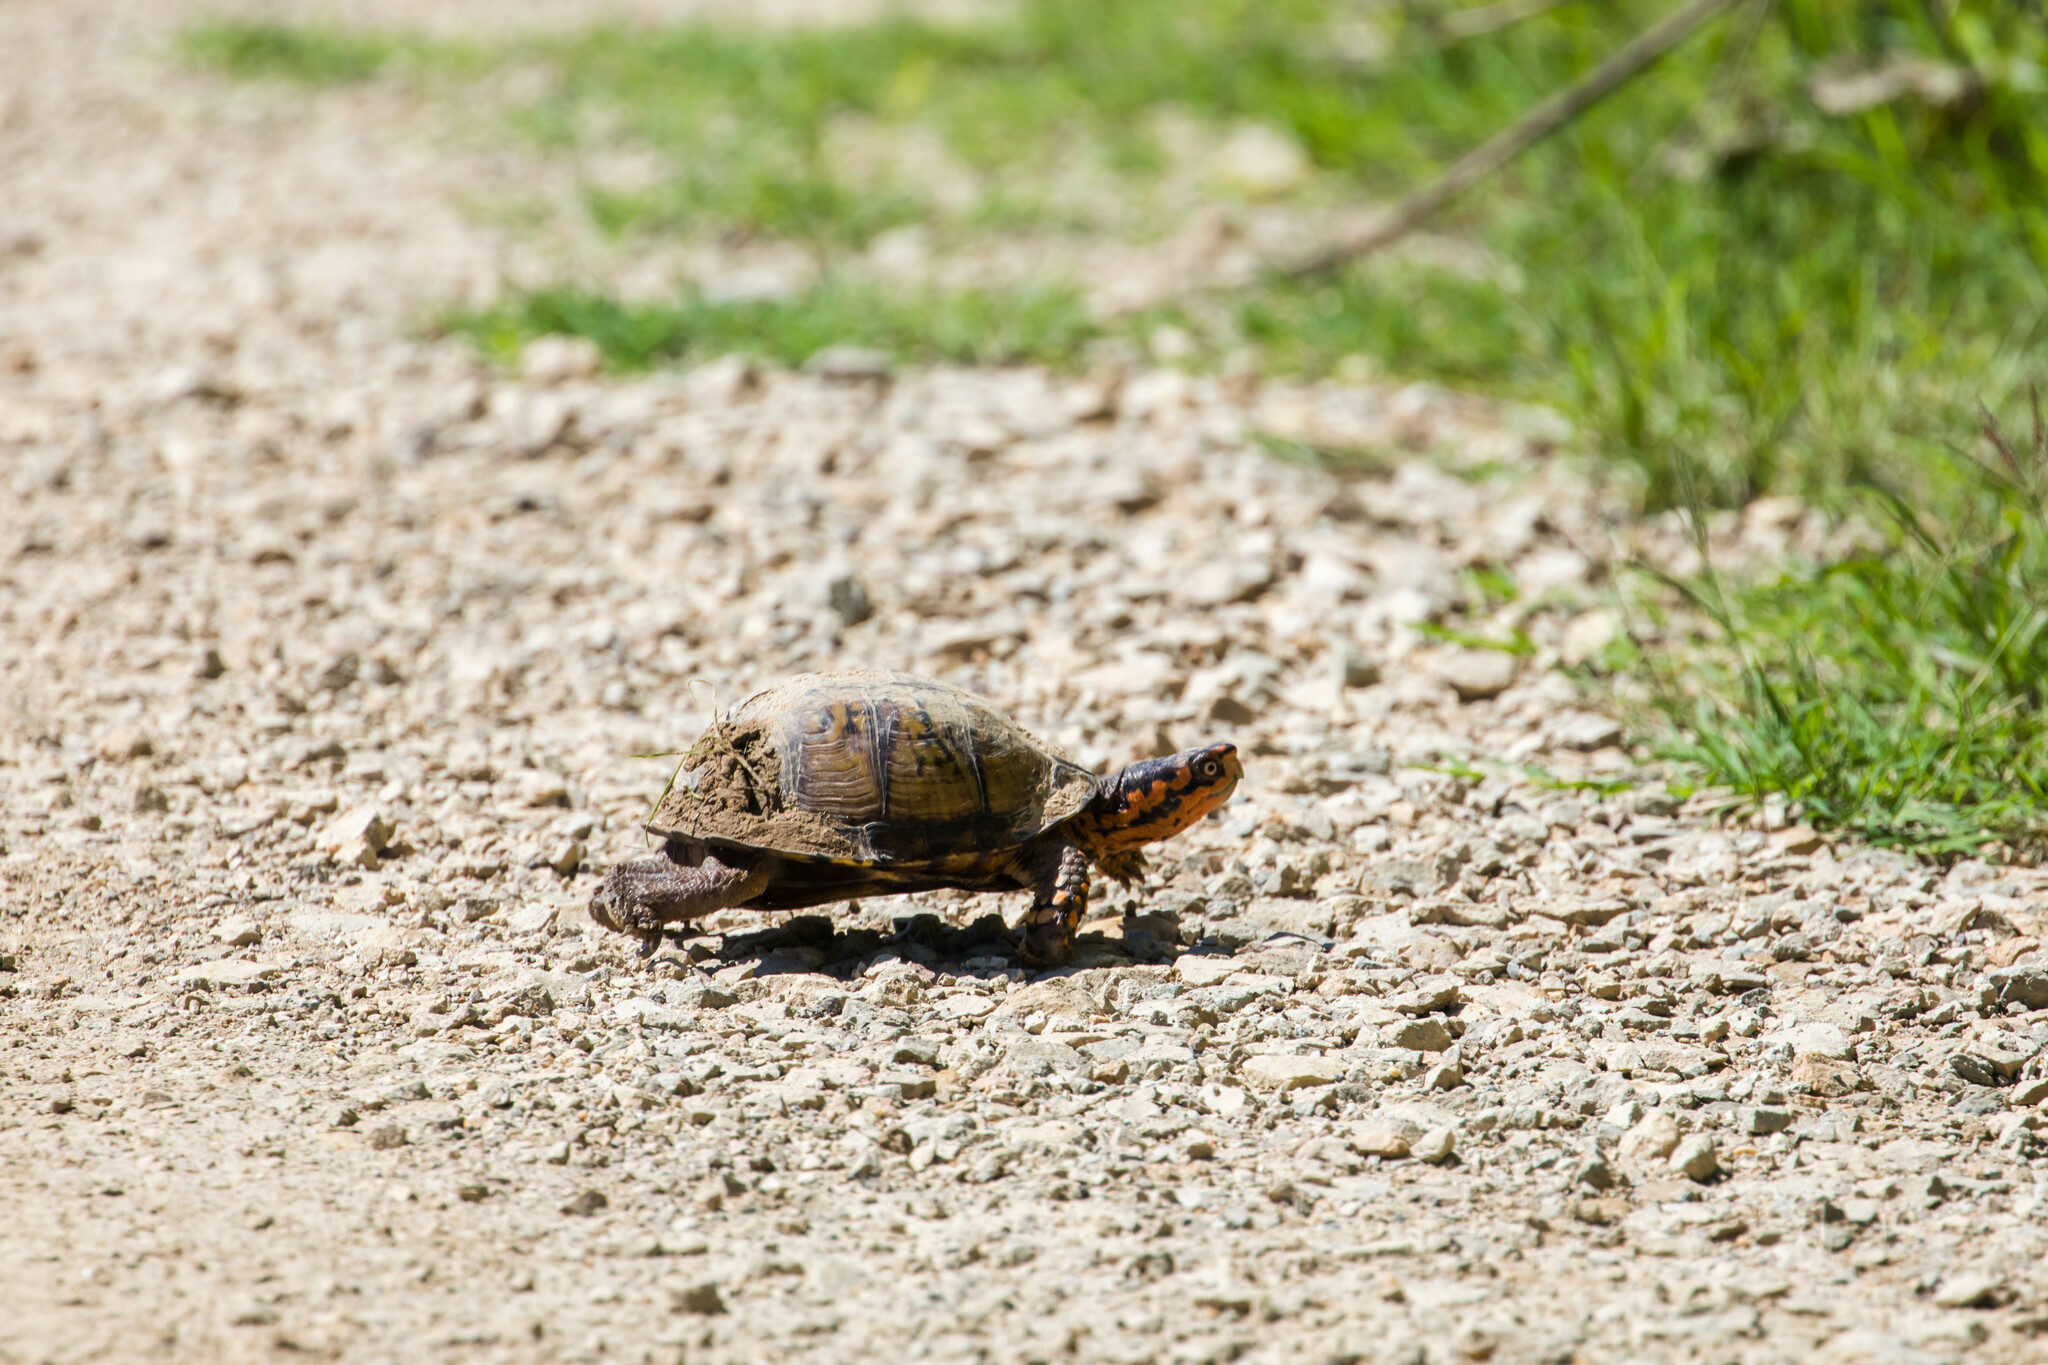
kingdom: Animalia
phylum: Chordata
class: Testudines
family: Emydidae
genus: Terrapene
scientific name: Terrapene carolina
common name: Common box turtle
